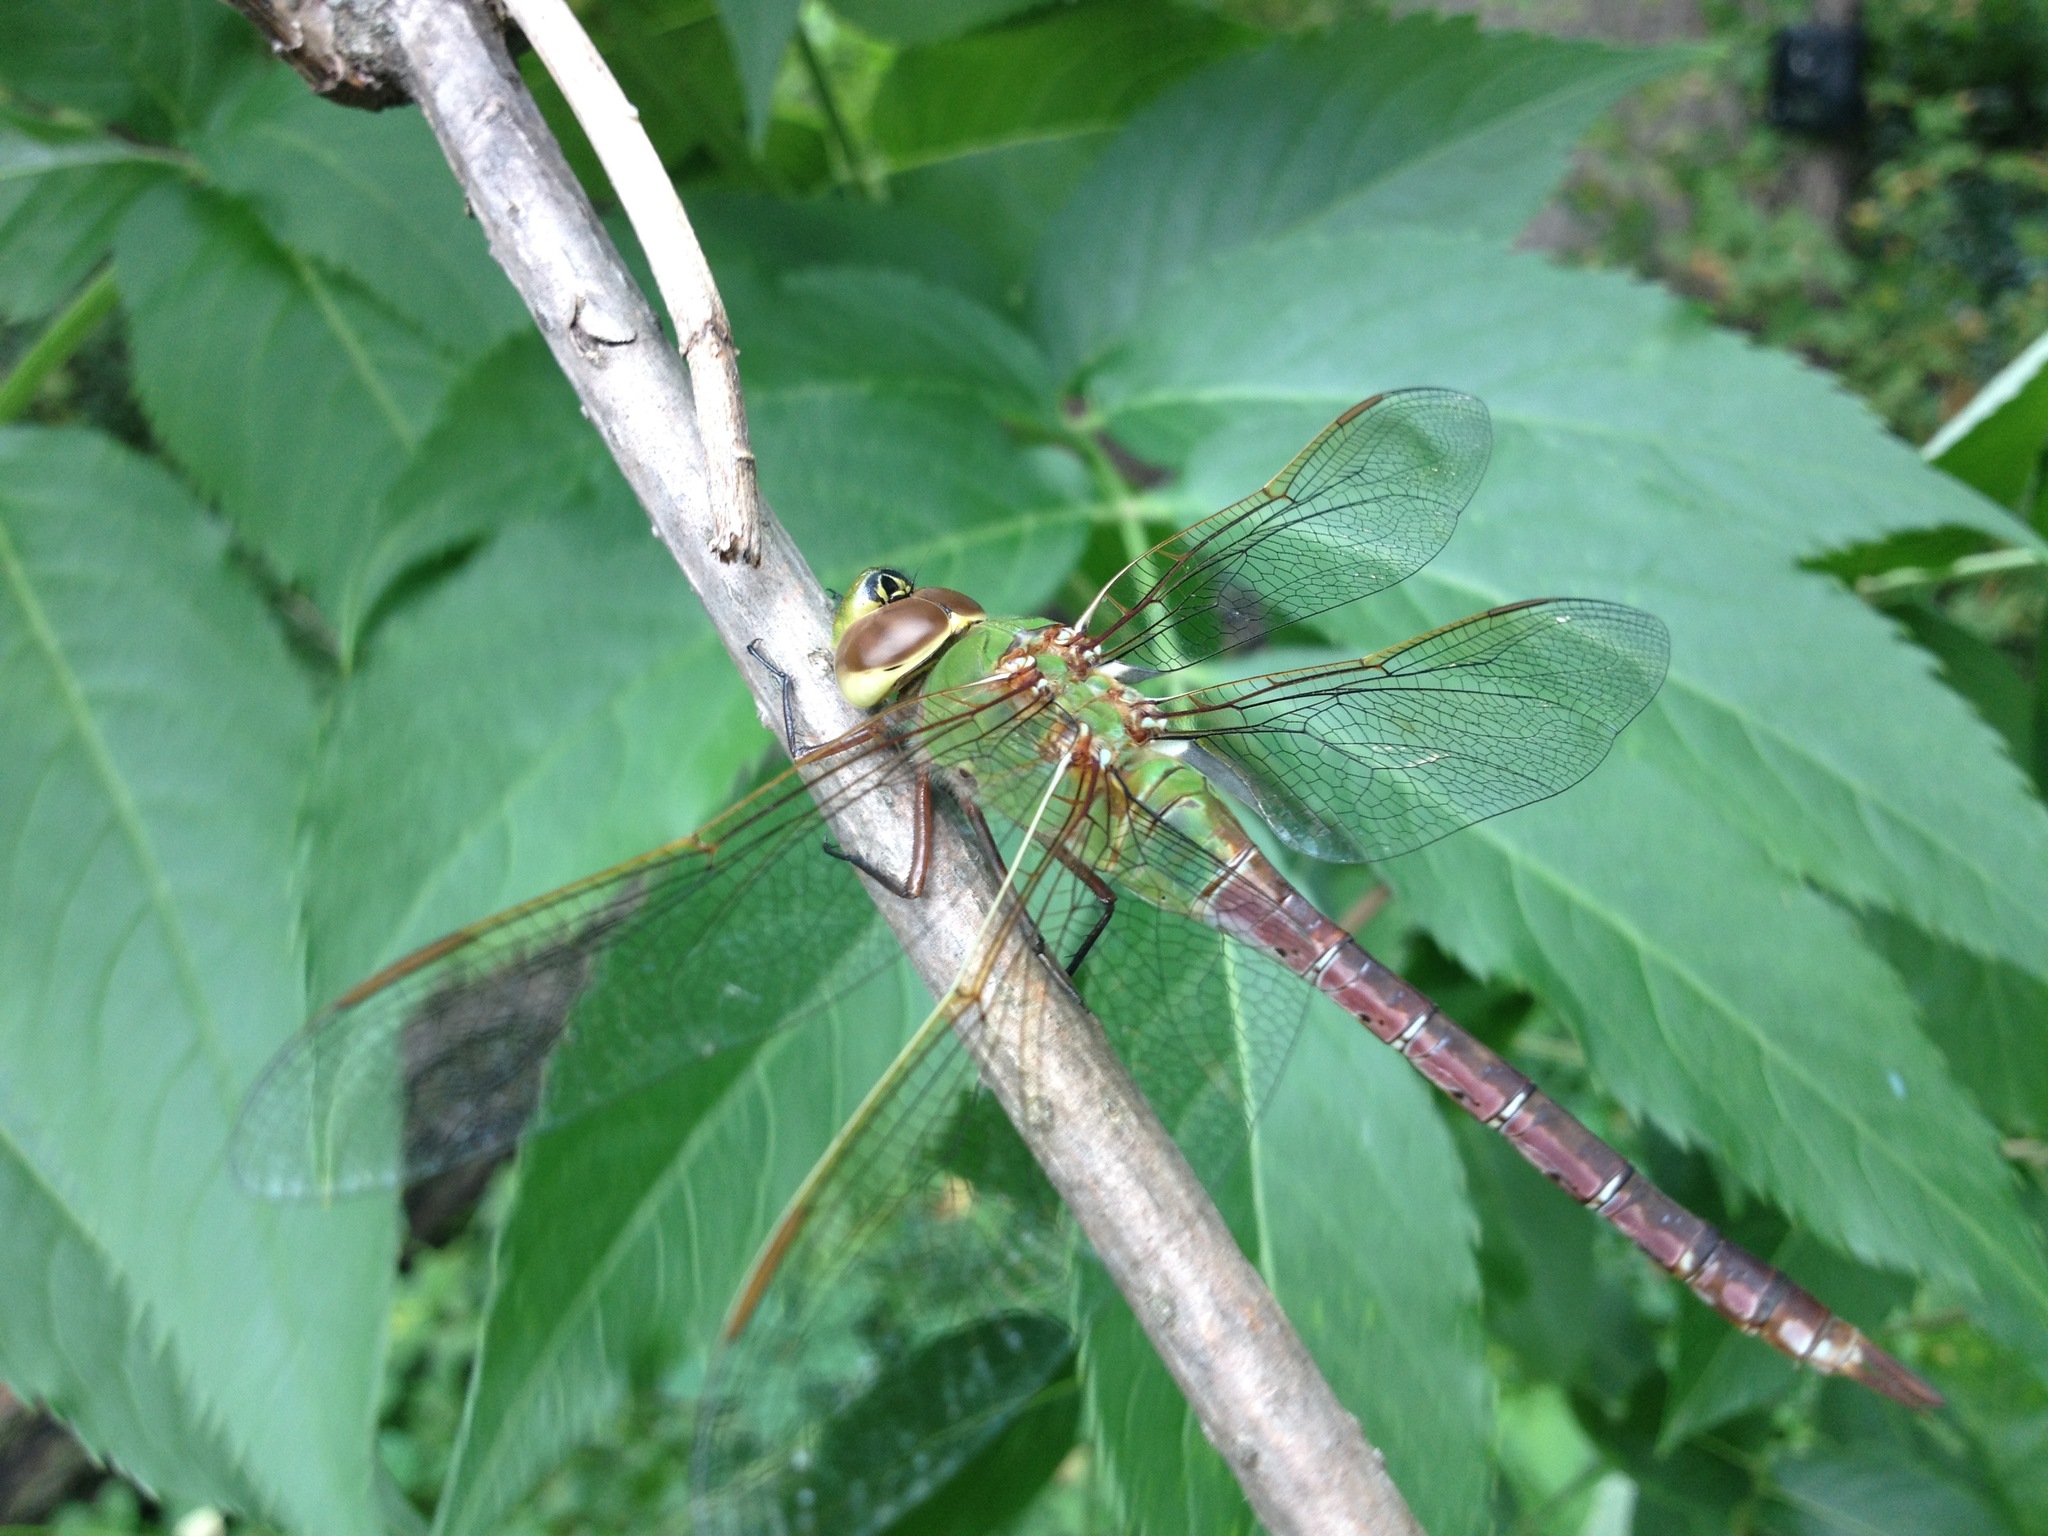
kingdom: Animalia
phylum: Arthropoda
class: Insecta
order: Odonata
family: Aeshnidae
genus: Anax
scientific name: Anax junius
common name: Common green darner
